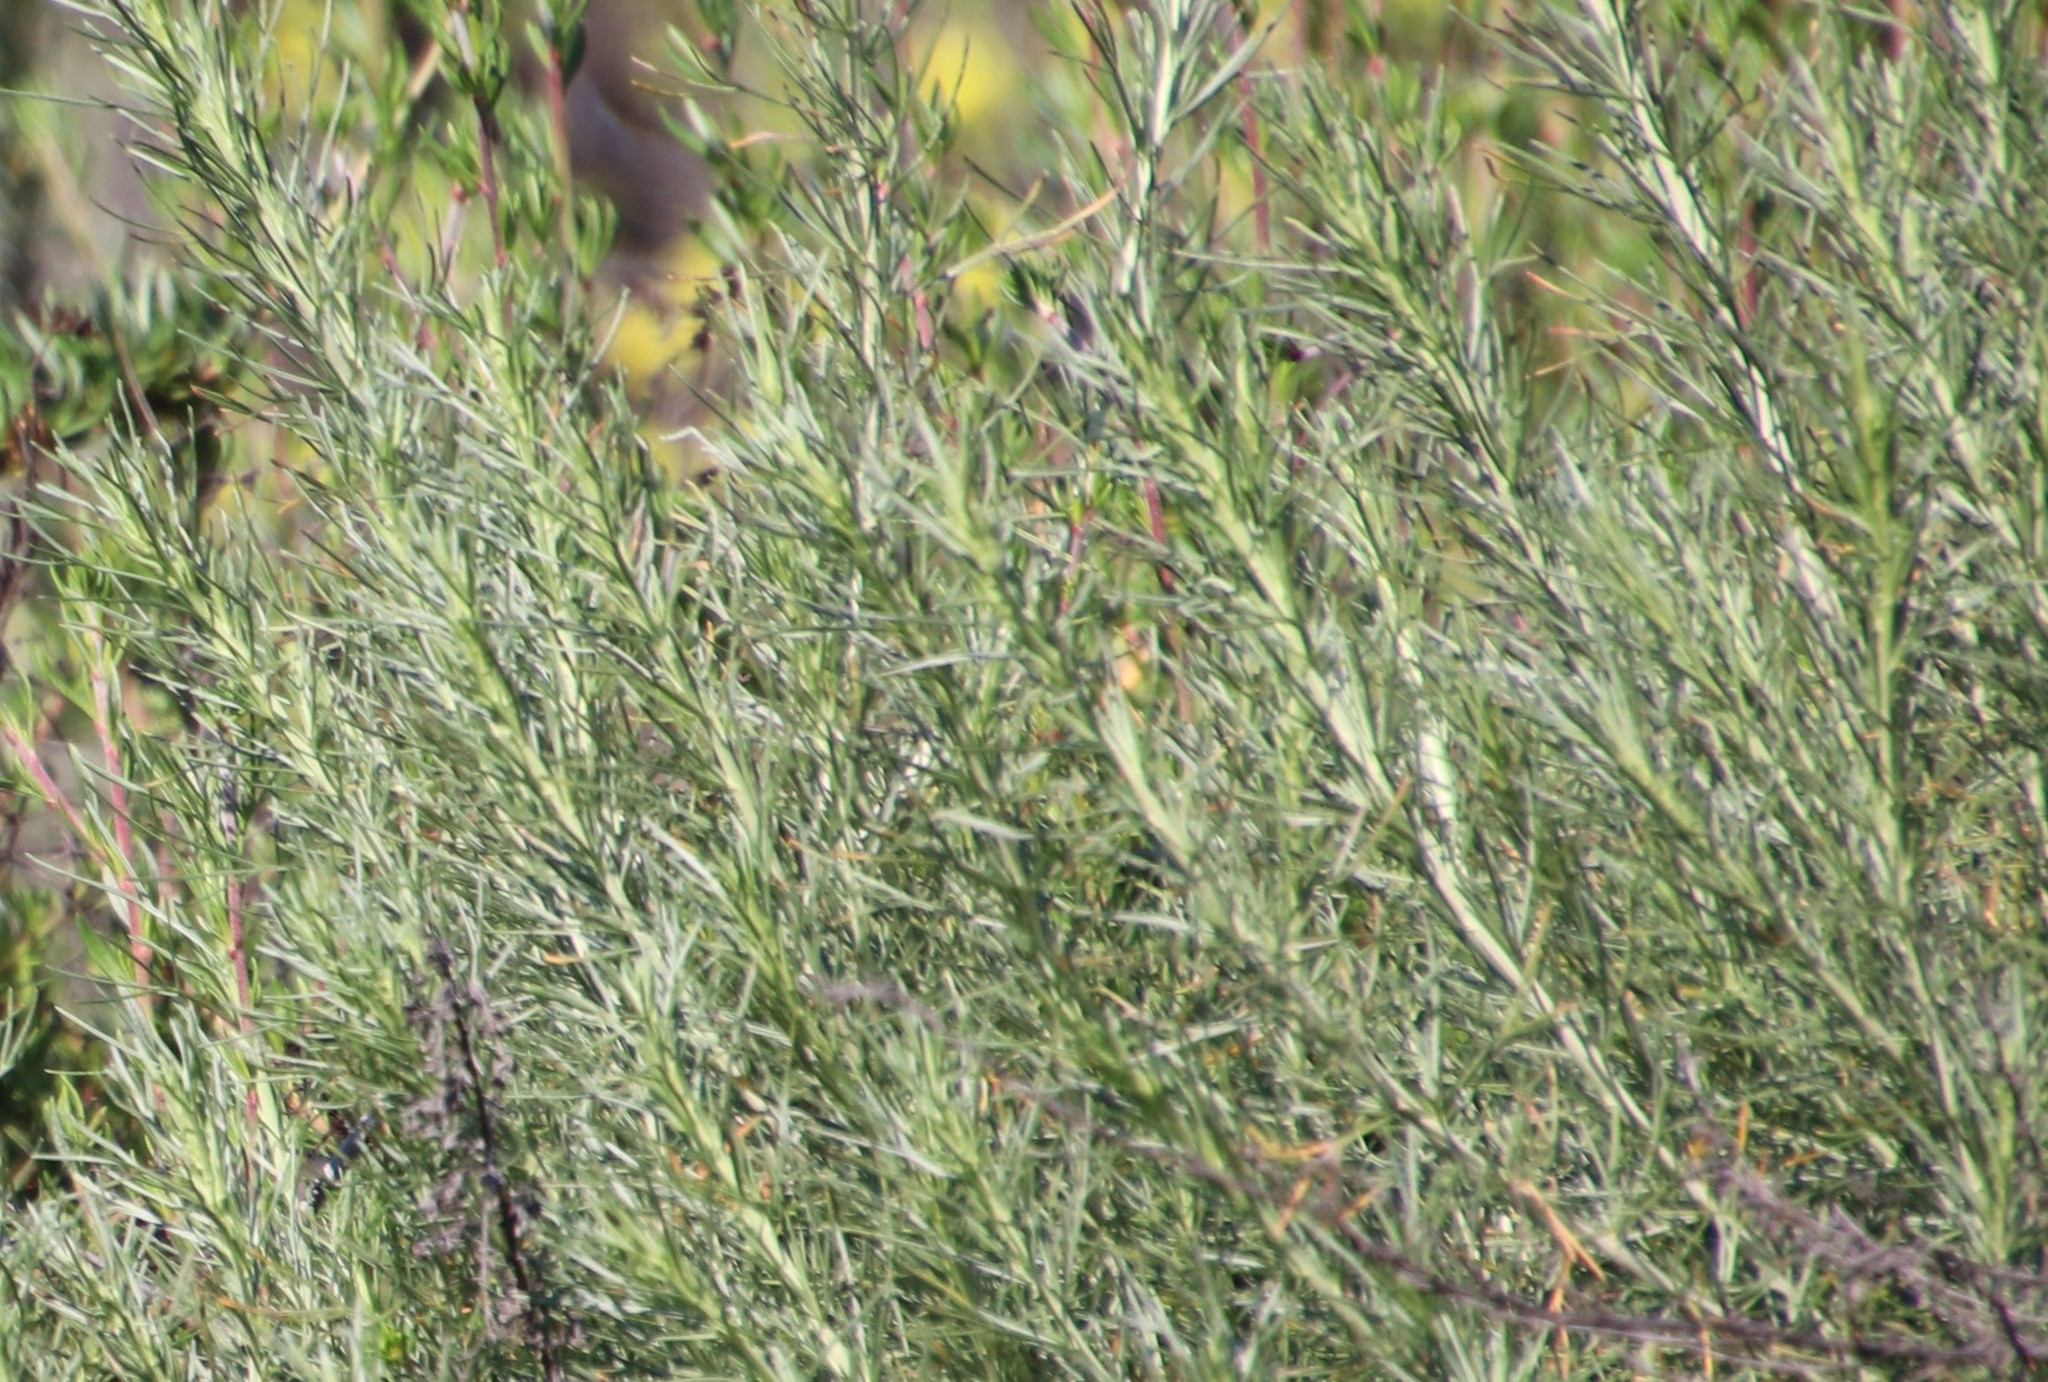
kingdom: Plantae
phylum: Tracheophyta
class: Magnoliopsida
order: Asterales
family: Asteraceae
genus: Artemisia
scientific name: Artemisia californica
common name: California sagebrush
